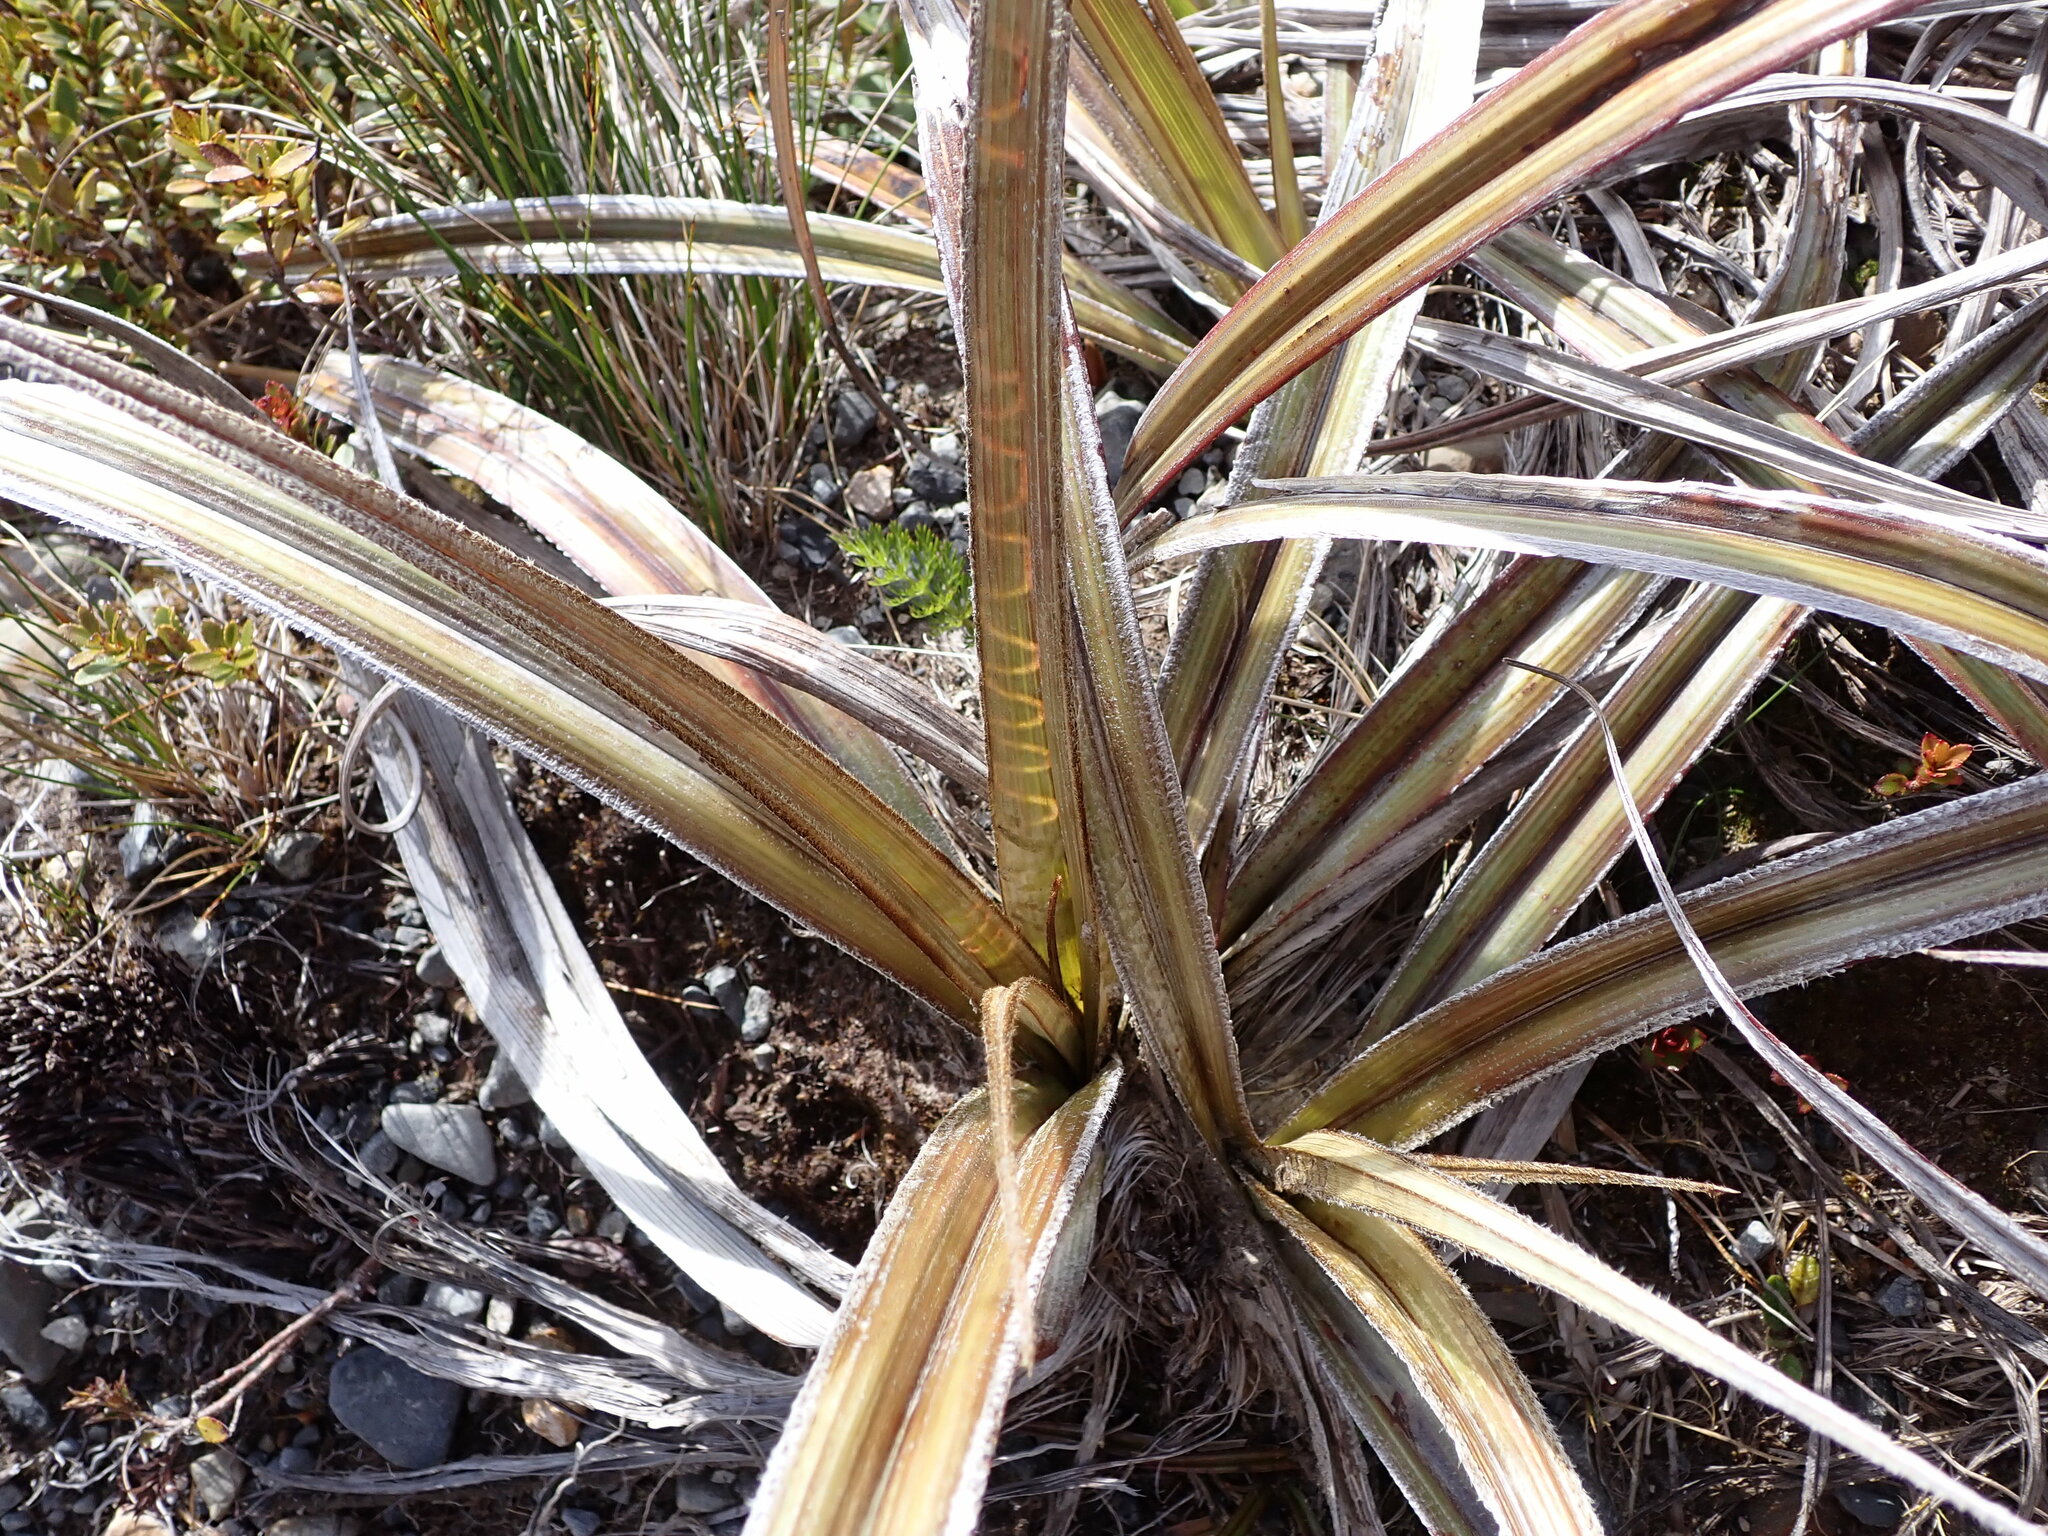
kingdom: Plantae
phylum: Tracheophyta
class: Liliopsida
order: Asparagales
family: Asteliaceae
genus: Astelia
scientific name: Astelia nervosa
